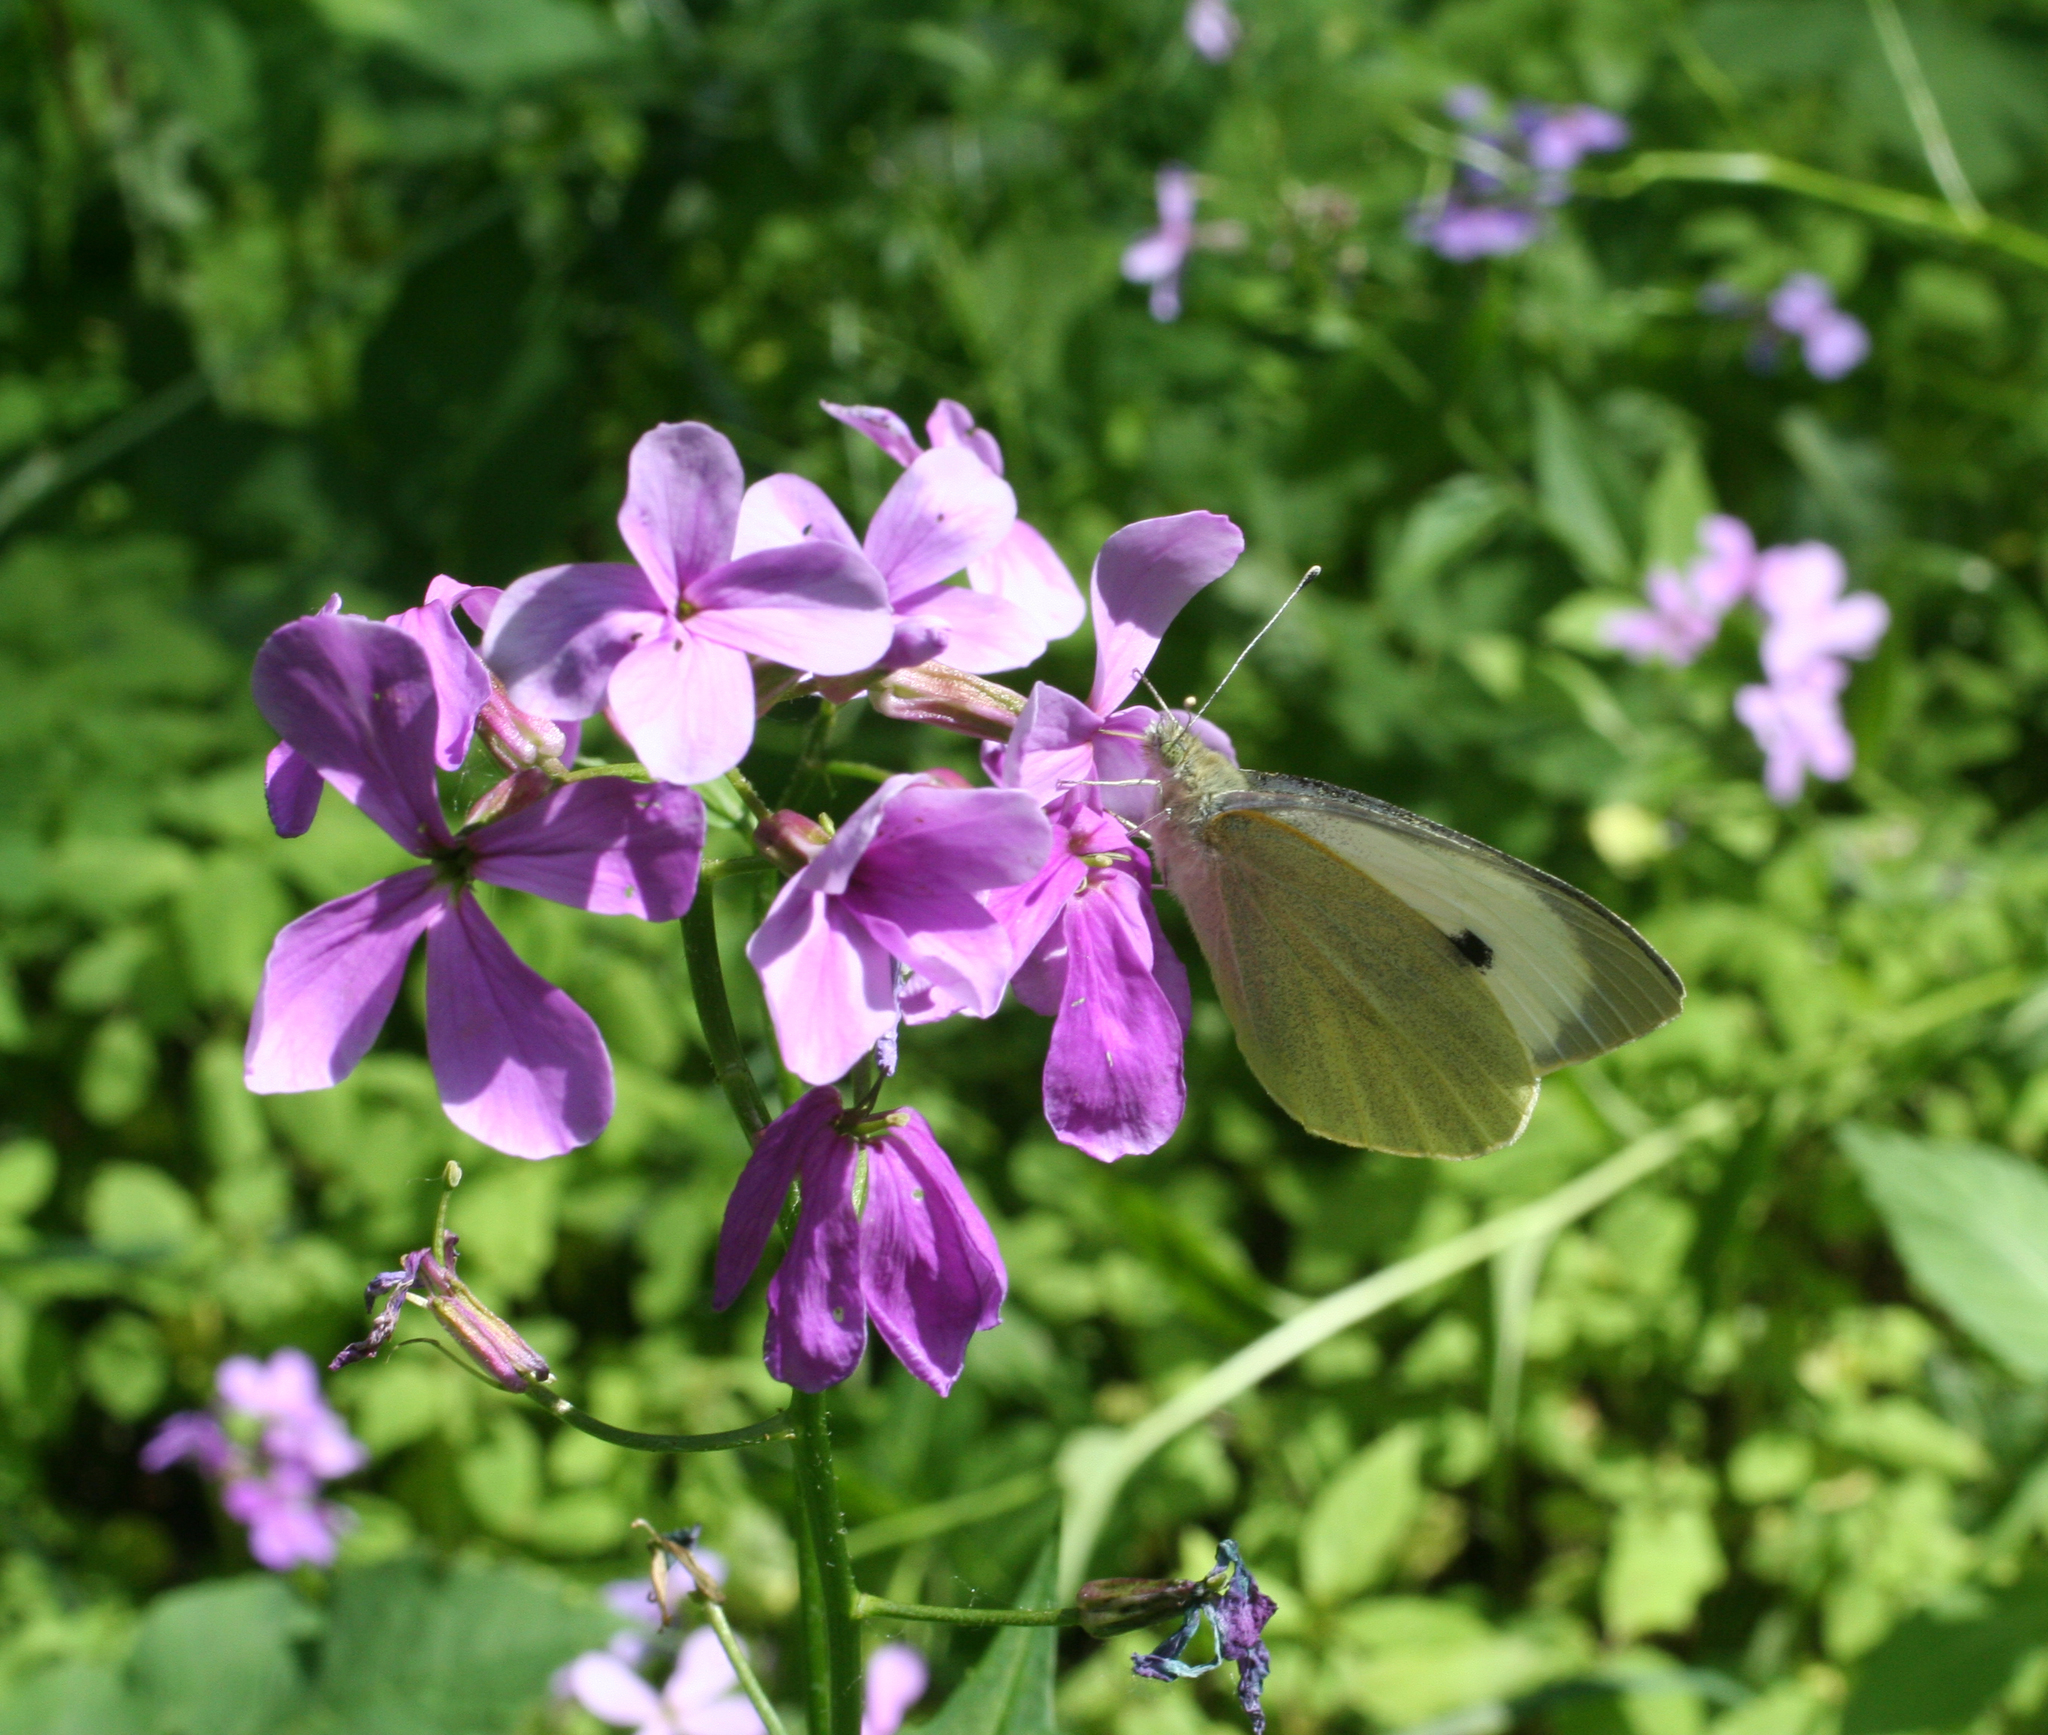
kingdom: Animalia
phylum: Arthropoda
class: Insecta
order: Lepidoptera
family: Pieridae
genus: Pieris
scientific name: Pieris brassicae
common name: Large white
